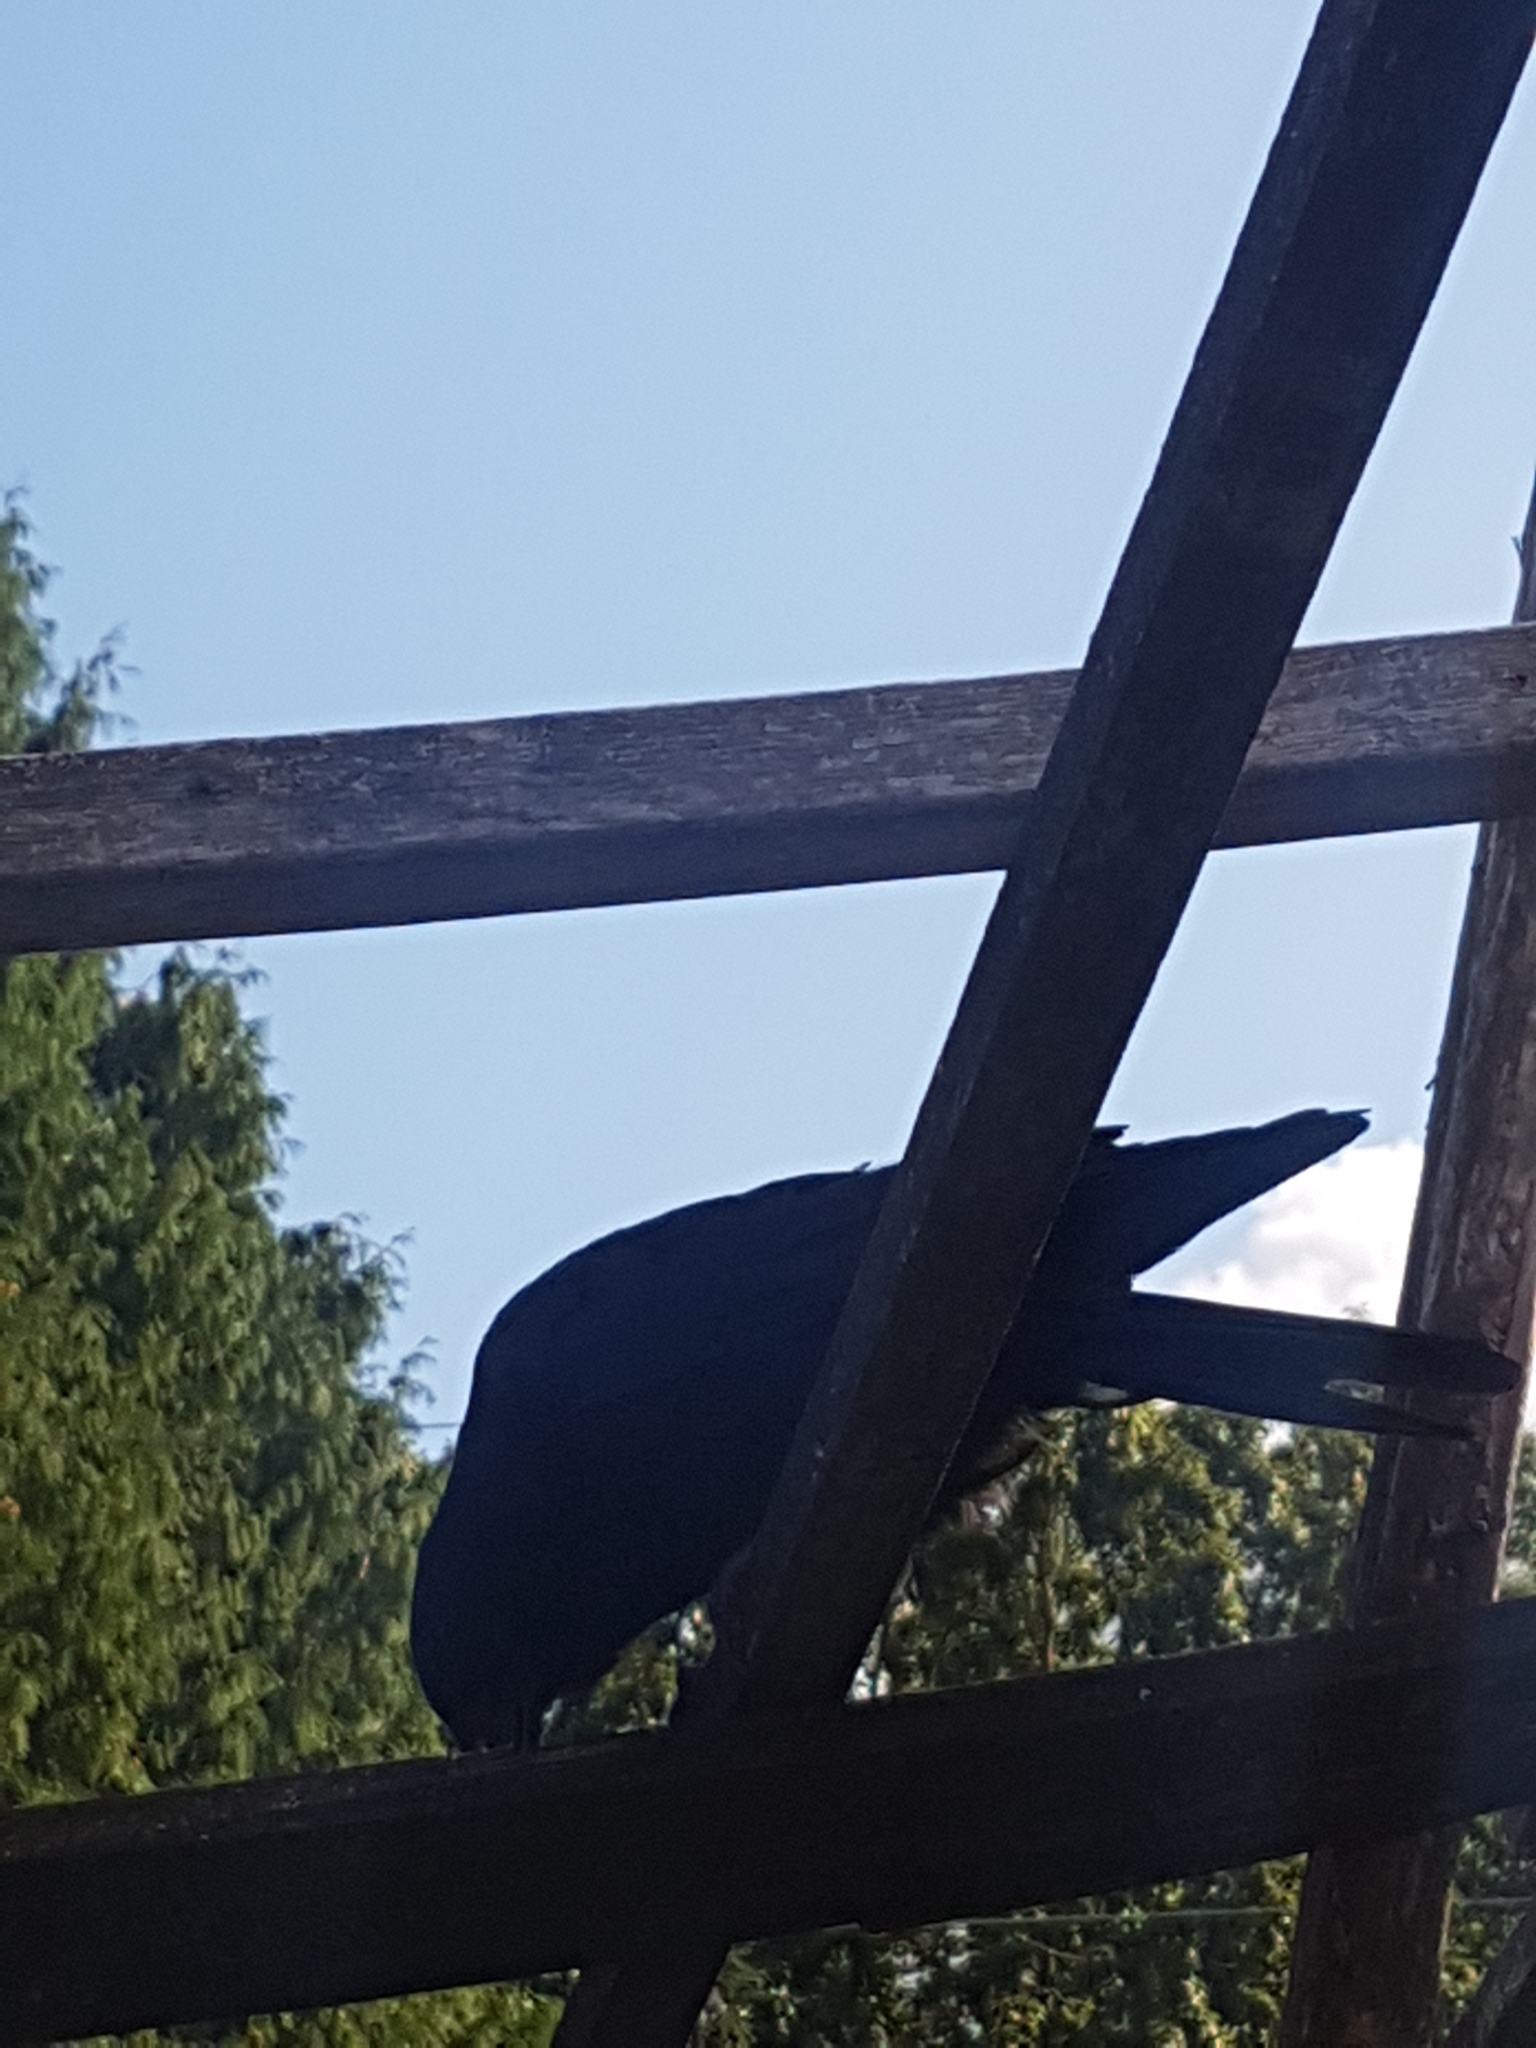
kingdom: Animalia
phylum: Chordata
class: Aves
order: Passeriformes
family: Corvidae
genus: Corvus
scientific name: Corvus brachyrhynchos
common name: American crow
